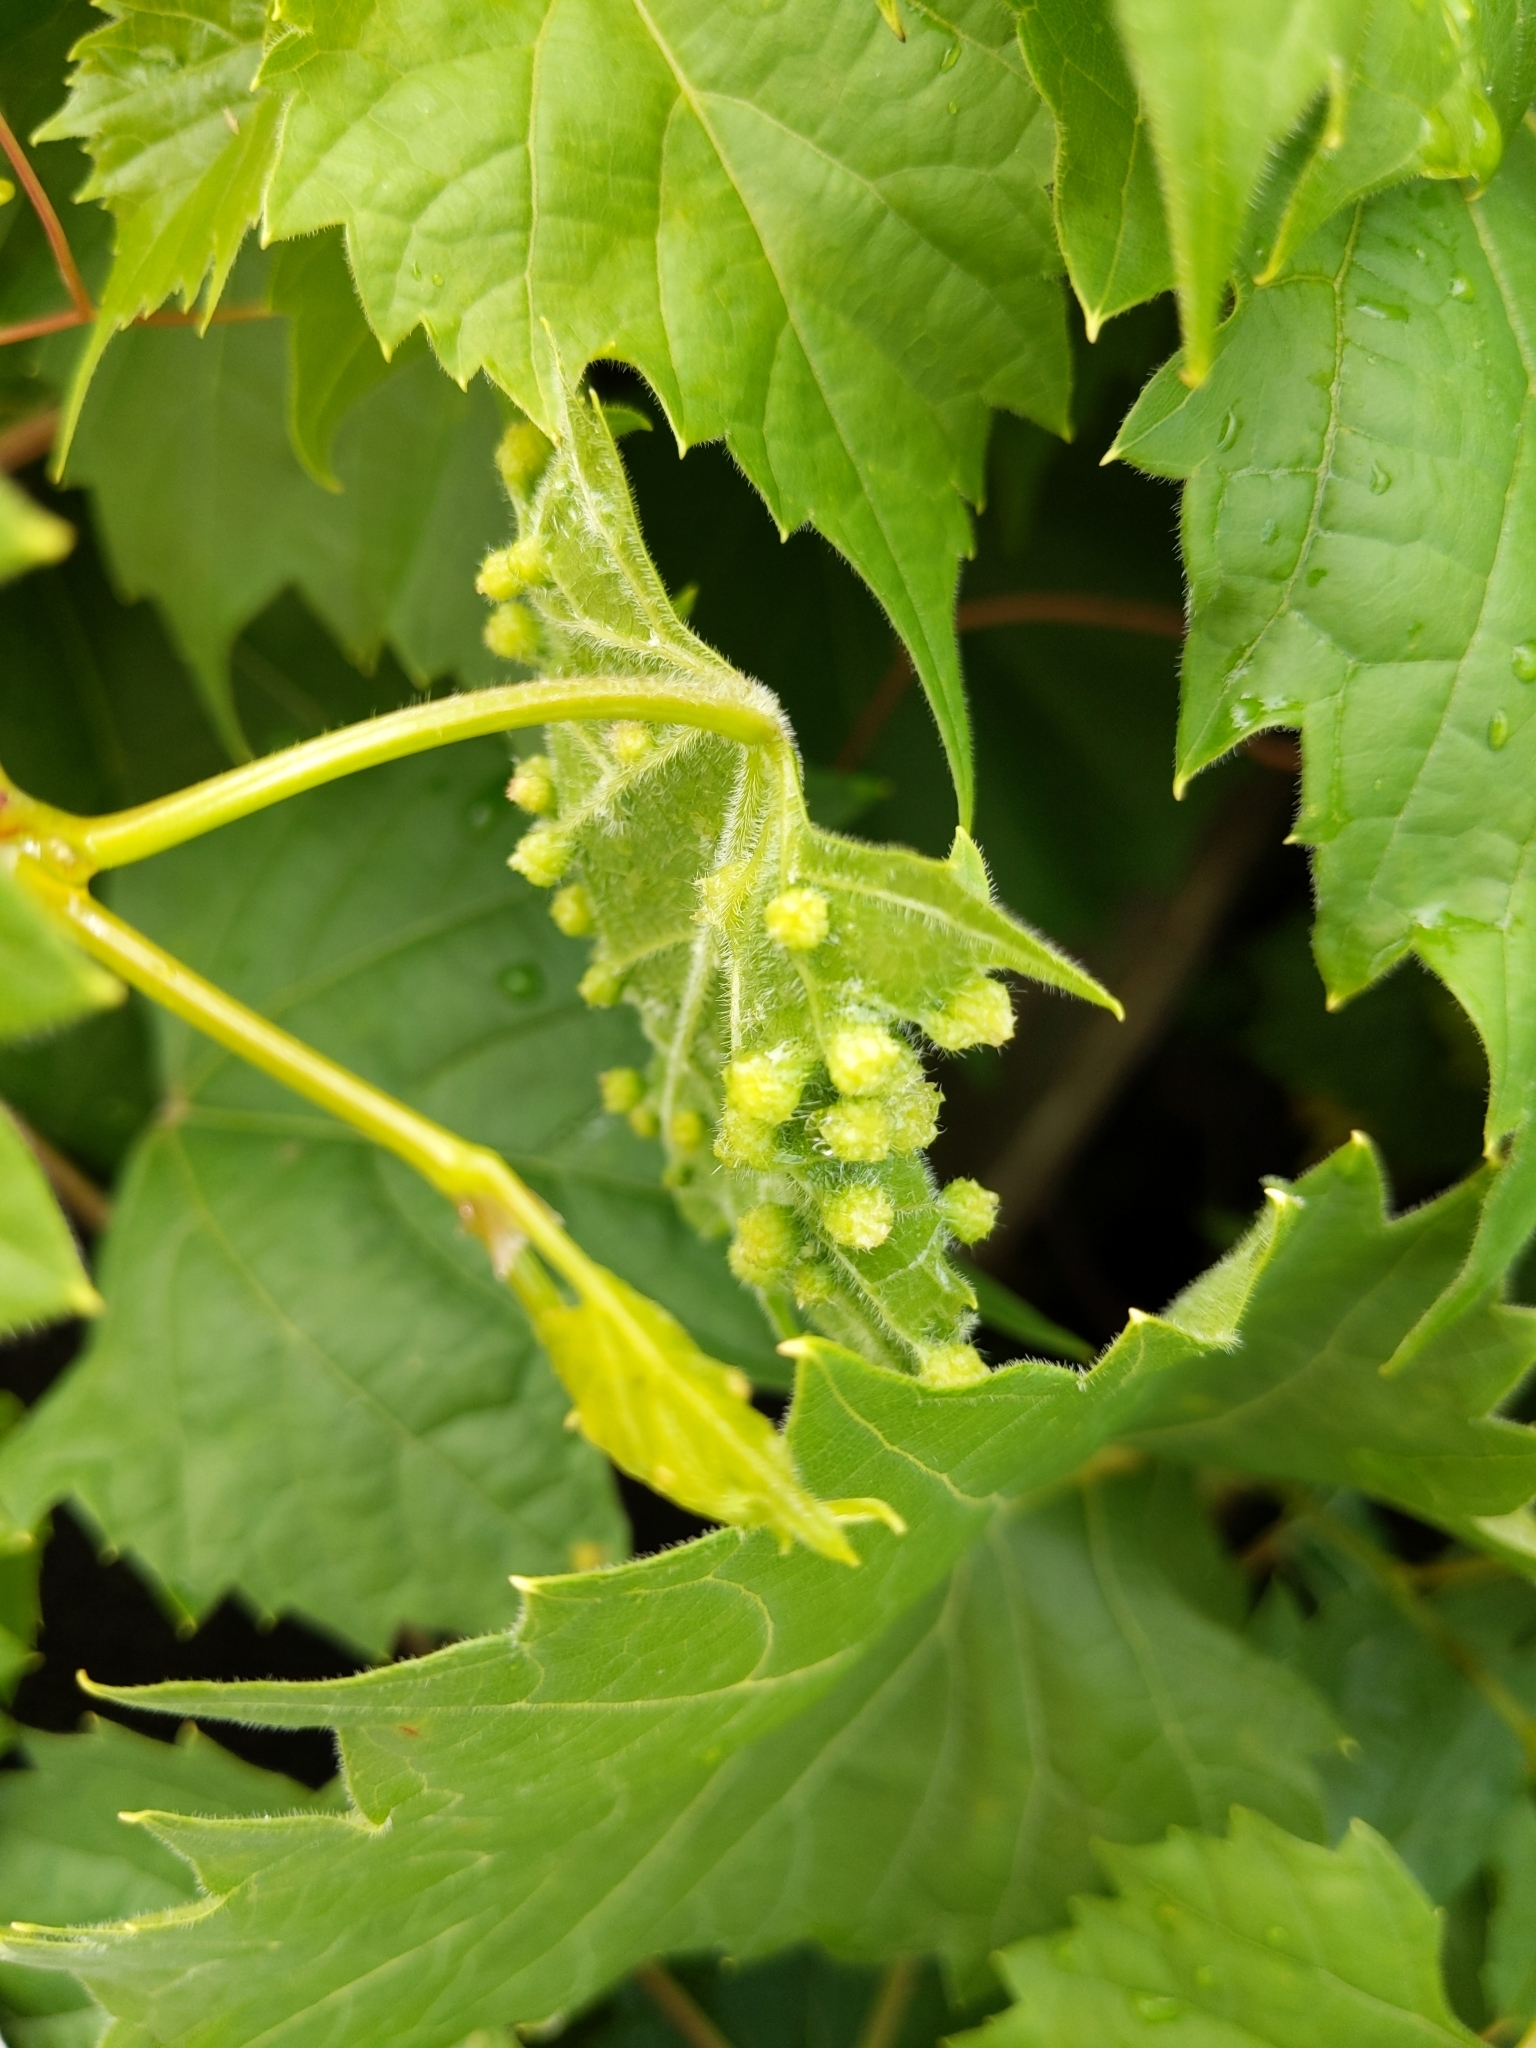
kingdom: Animalia
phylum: Arthropoda
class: Insecta
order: Hemiptera
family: Phylloxeridae
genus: Daktulosphaira
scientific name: Daktulosphaira vitifoliae
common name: Grape phylloxera
